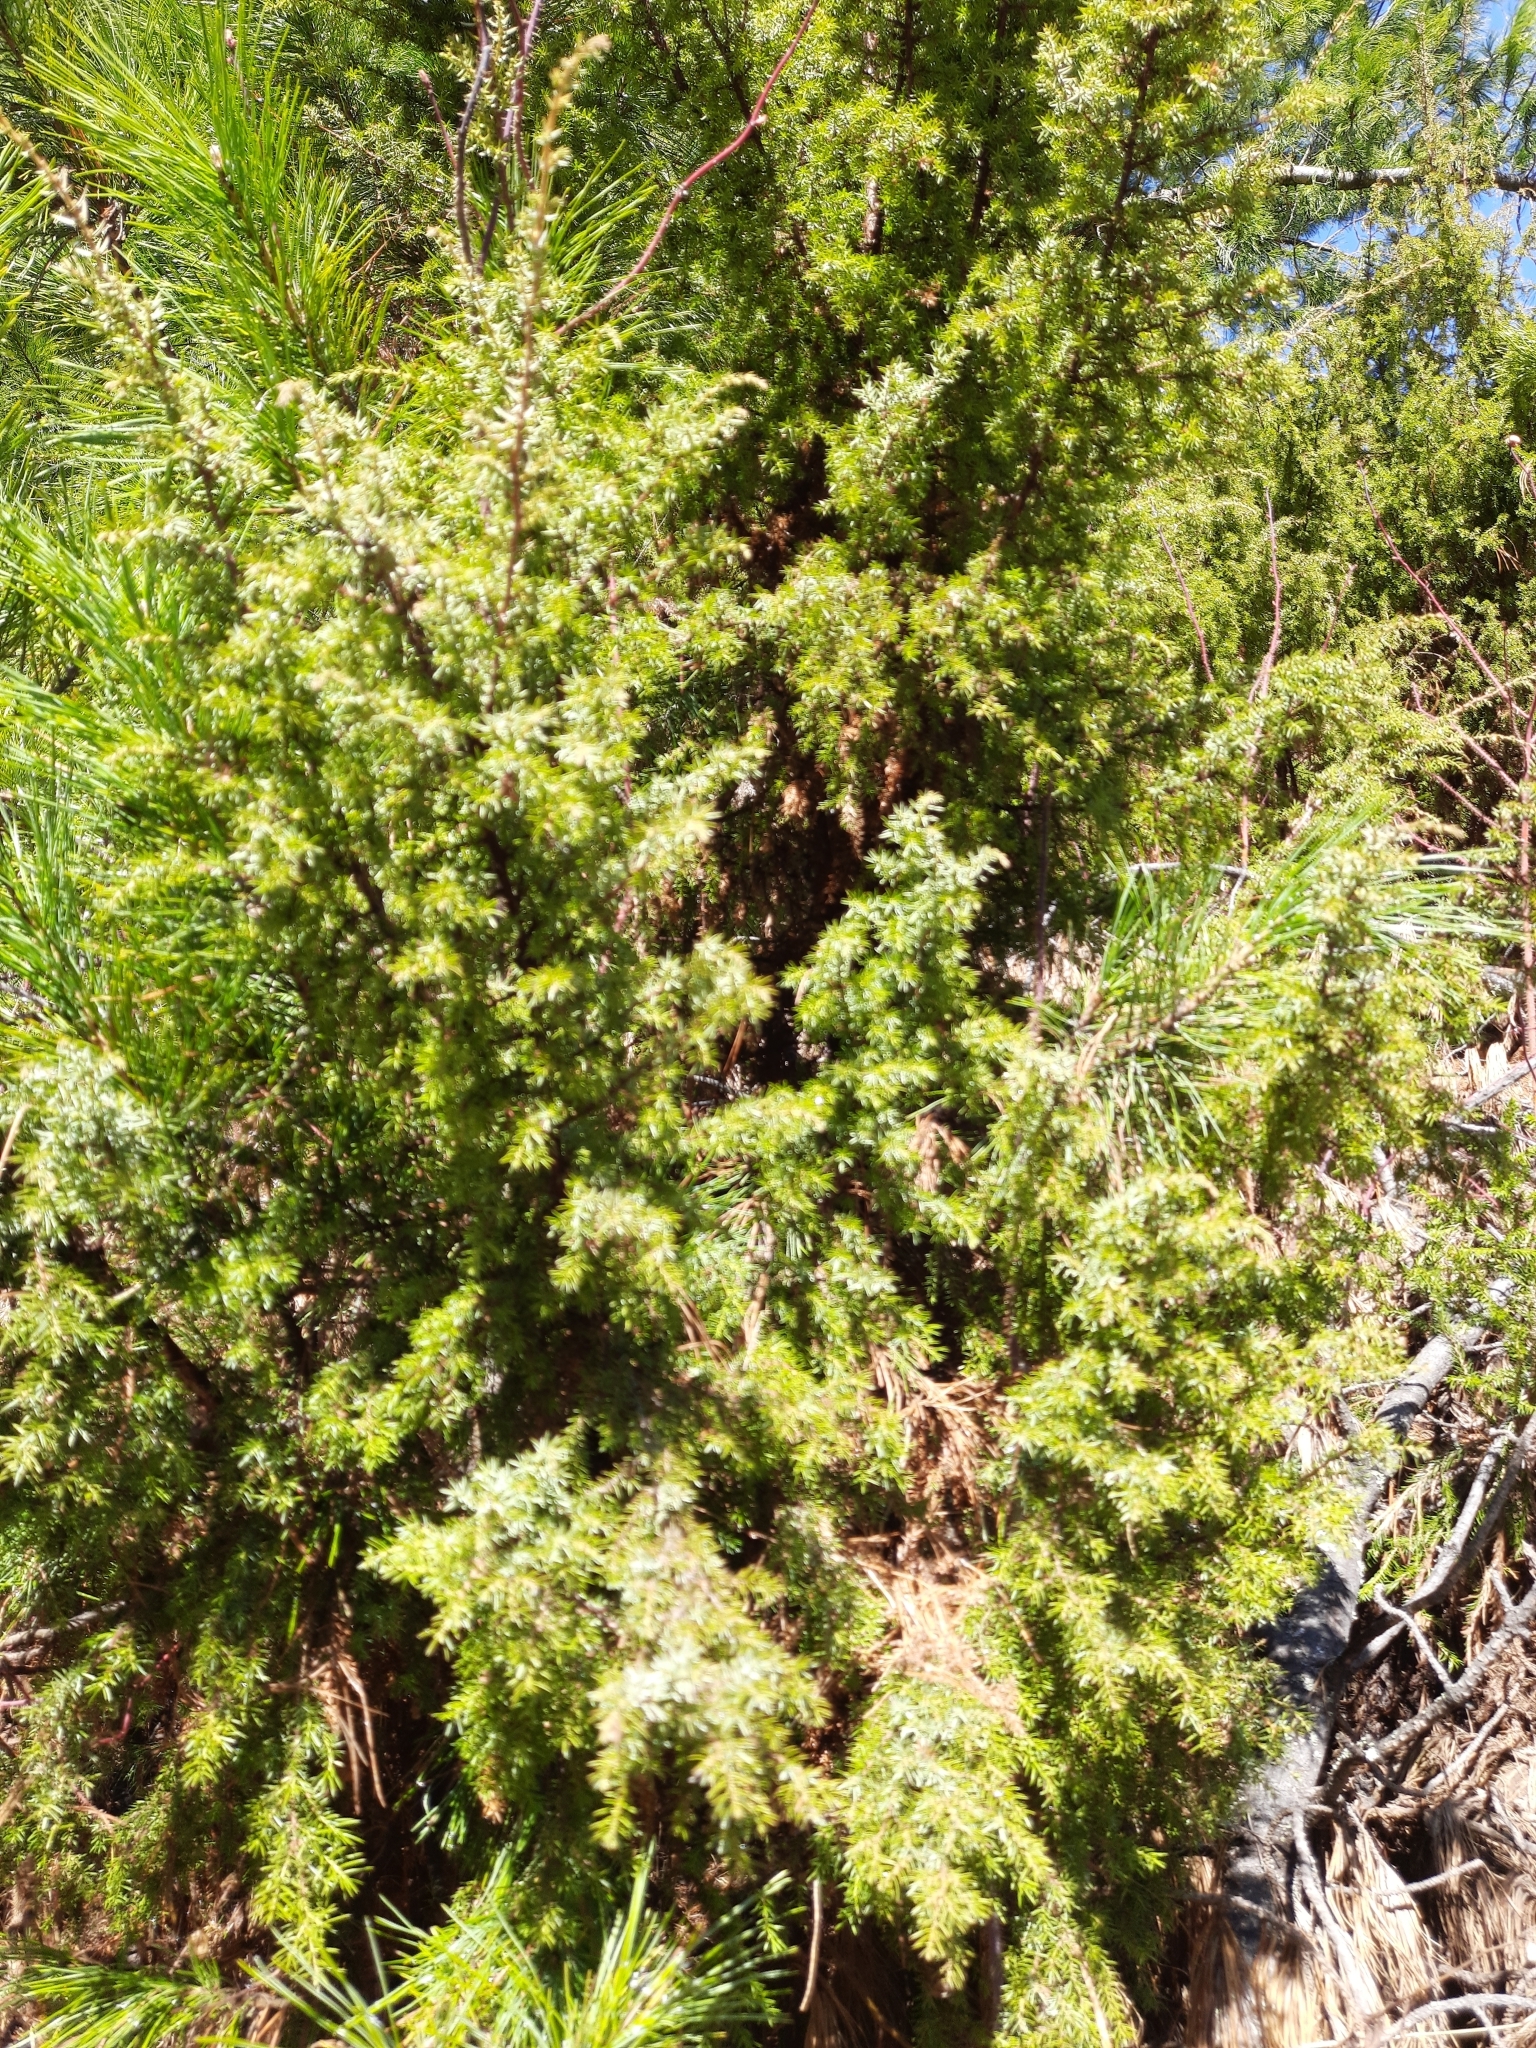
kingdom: Plantae
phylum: Tracheophyta
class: Pinopsida
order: Pinales
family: Cupressaceae
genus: Juniperus
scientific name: Juniperus communis
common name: Common juniper
